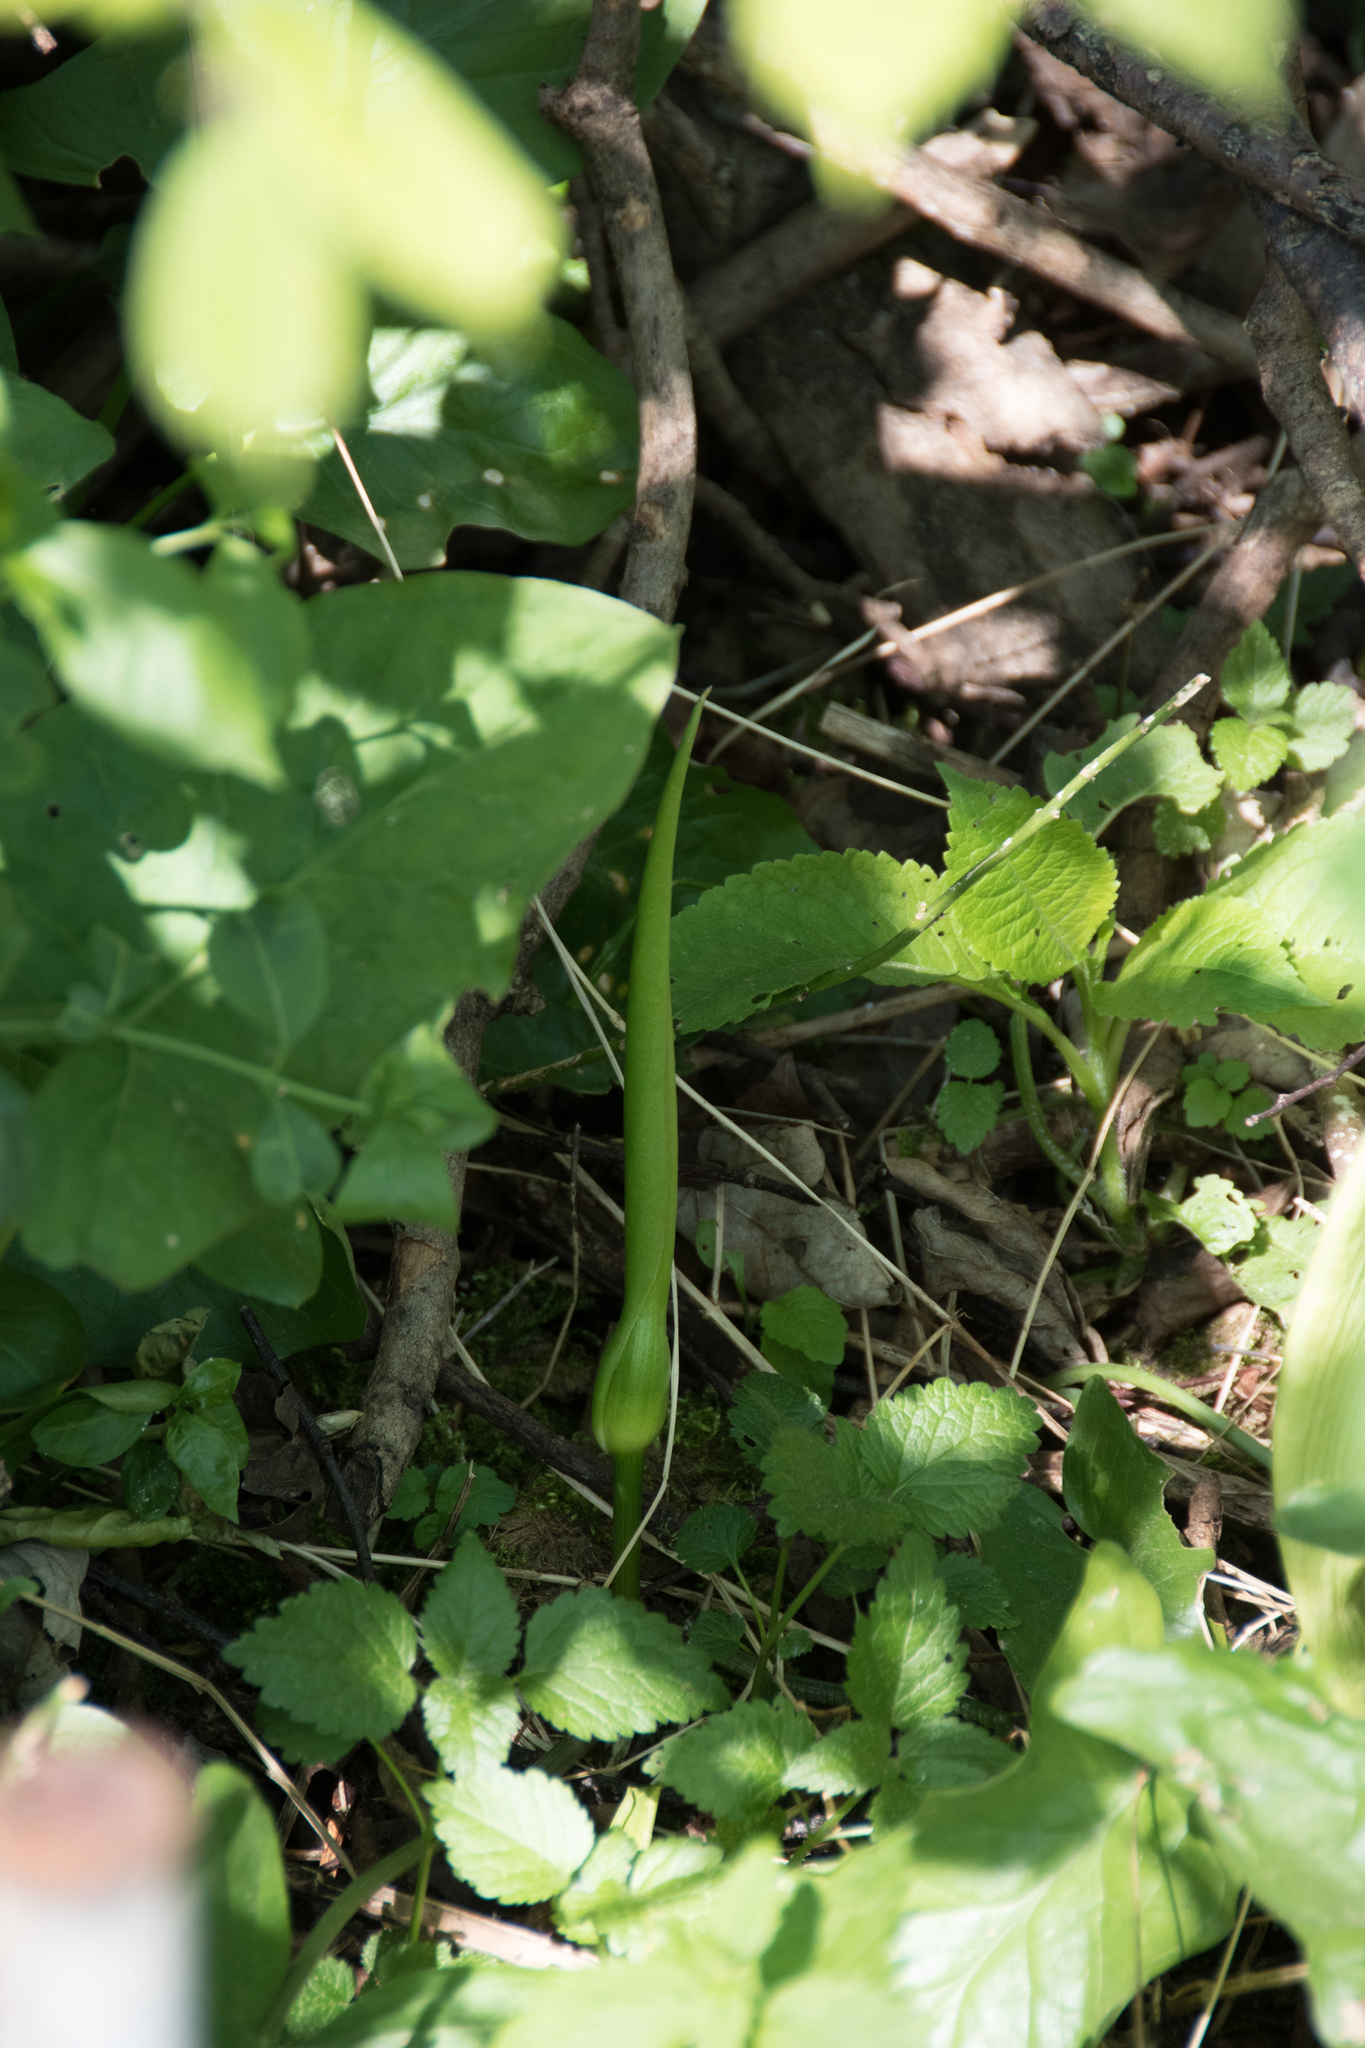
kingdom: Plantae
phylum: Tracheophyta
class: Liliopsida
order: Alismatales
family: Araceae
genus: Arum
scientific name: Arum maculatum
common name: Lords-and-ladies
